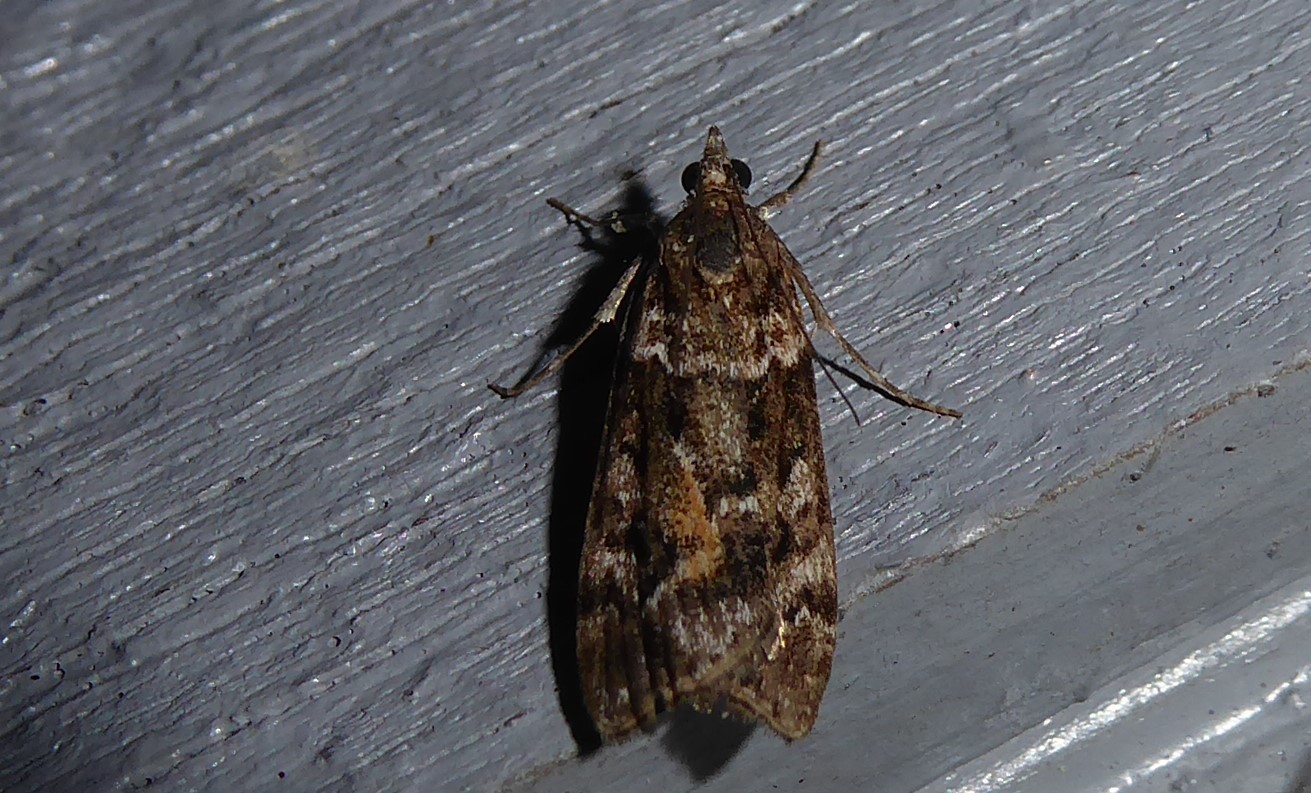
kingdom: Animalia
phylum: Arthropoda
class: Insecta
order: Lepidoptera
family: Crambidae
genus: Eudonia
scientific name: Eudonia submarginalis
